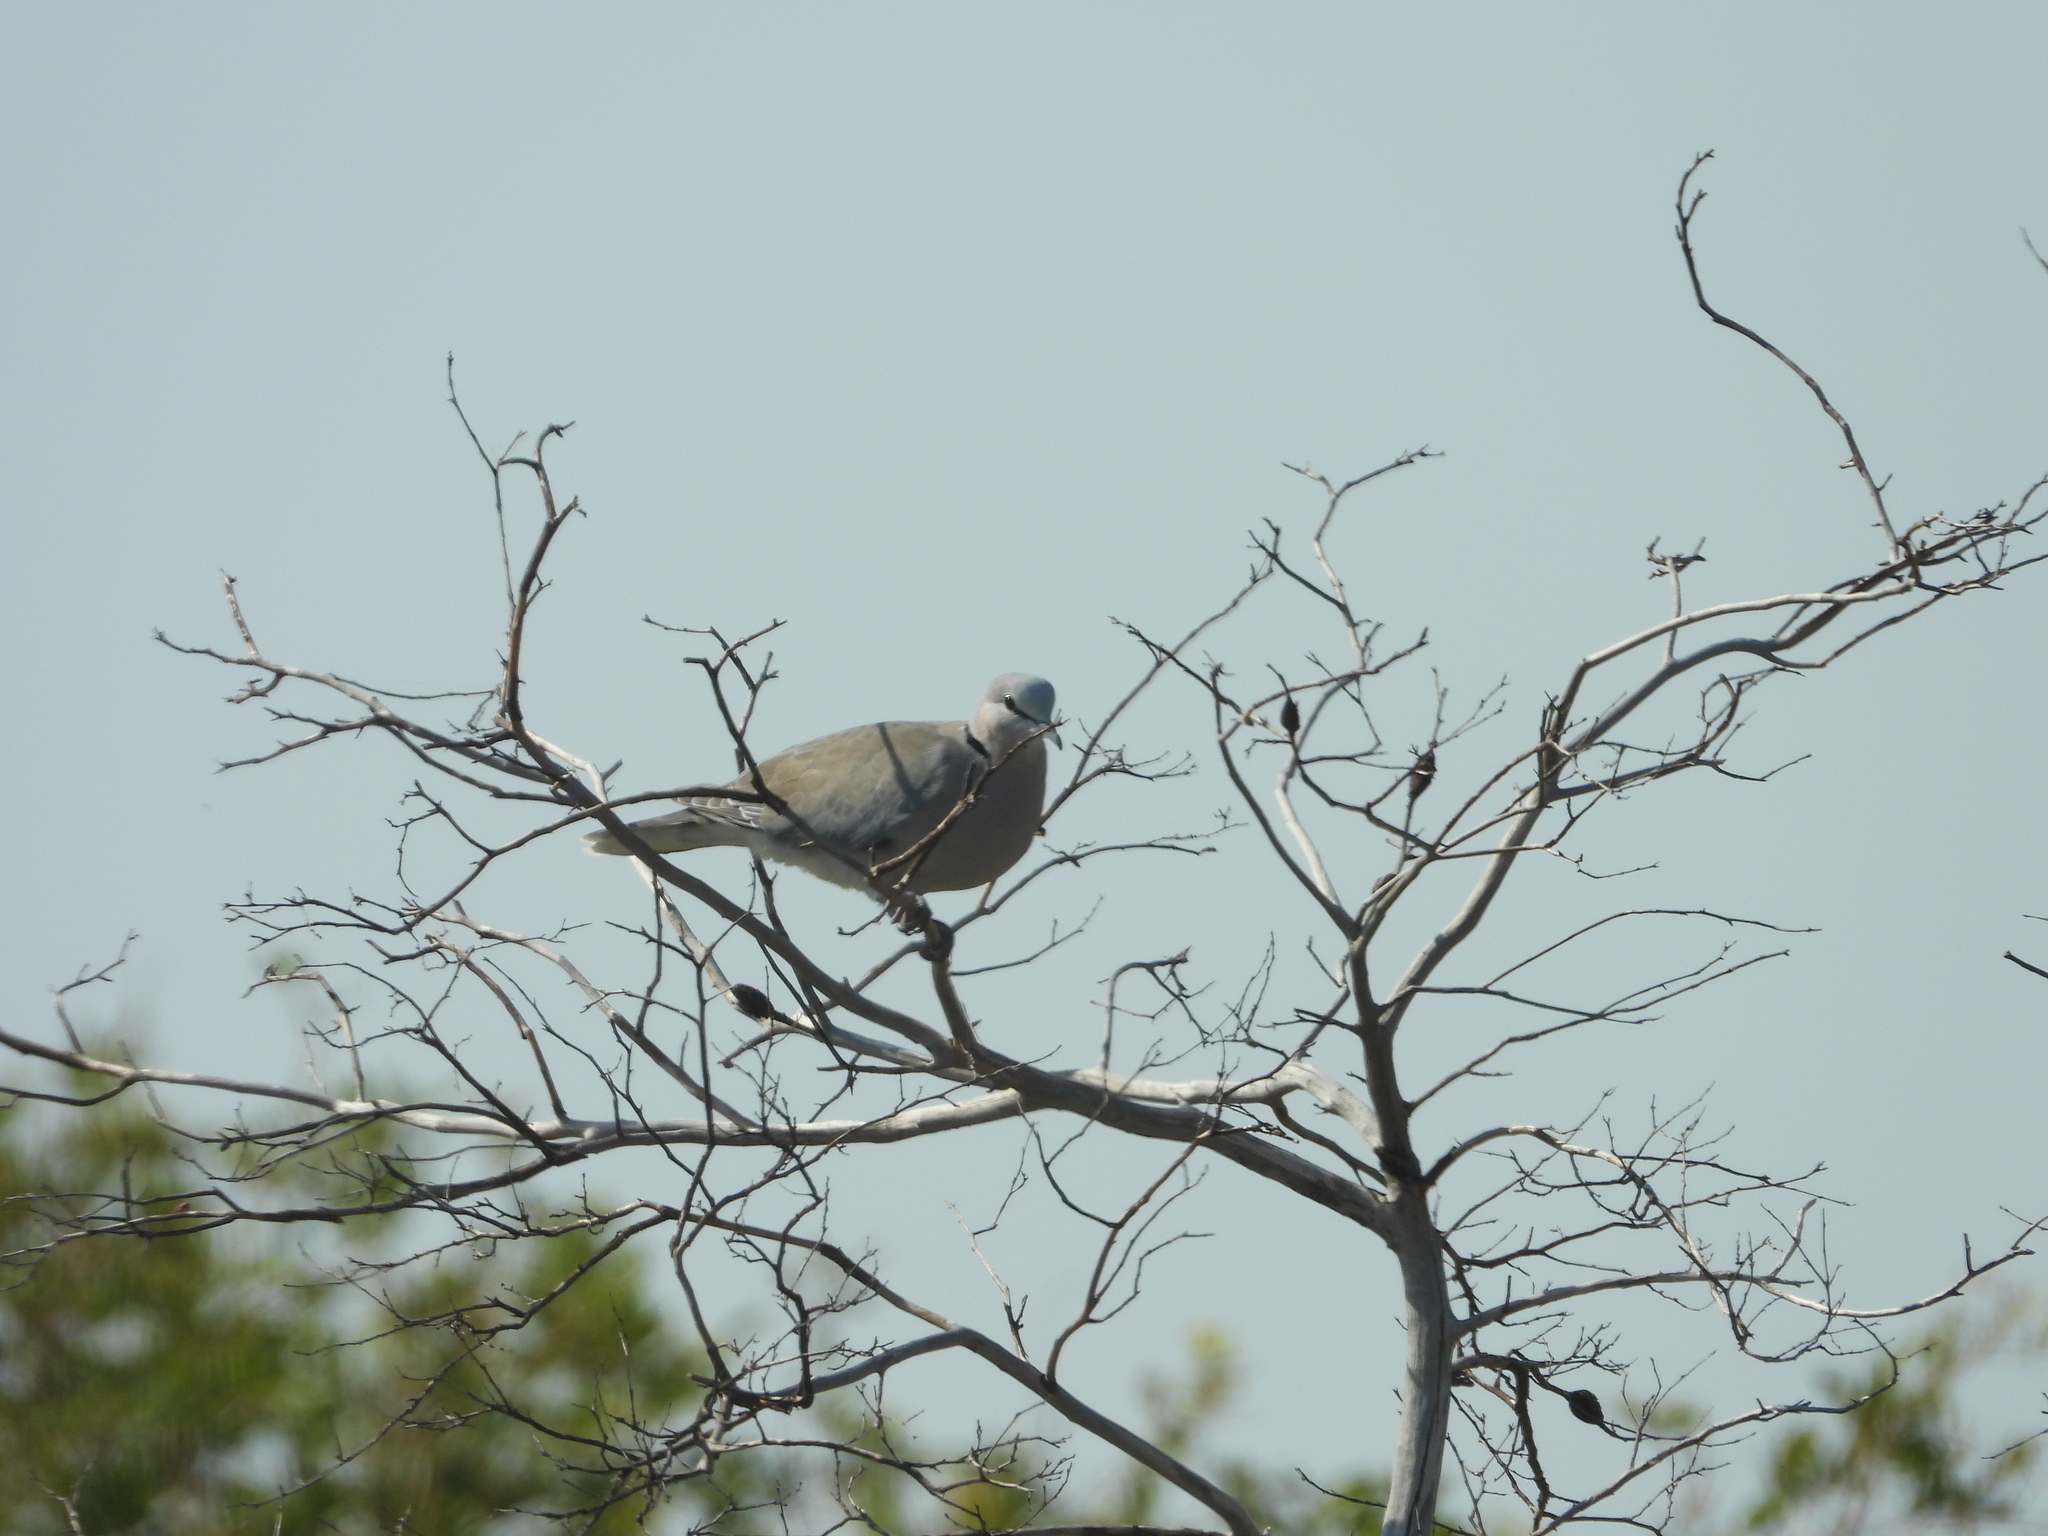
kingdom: Animalia
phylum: Chordata
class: Aves
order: Columbiformes
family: Columbidae
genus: Streptopelia
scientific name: Streptopelia capicola
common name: Ring-necked dove
